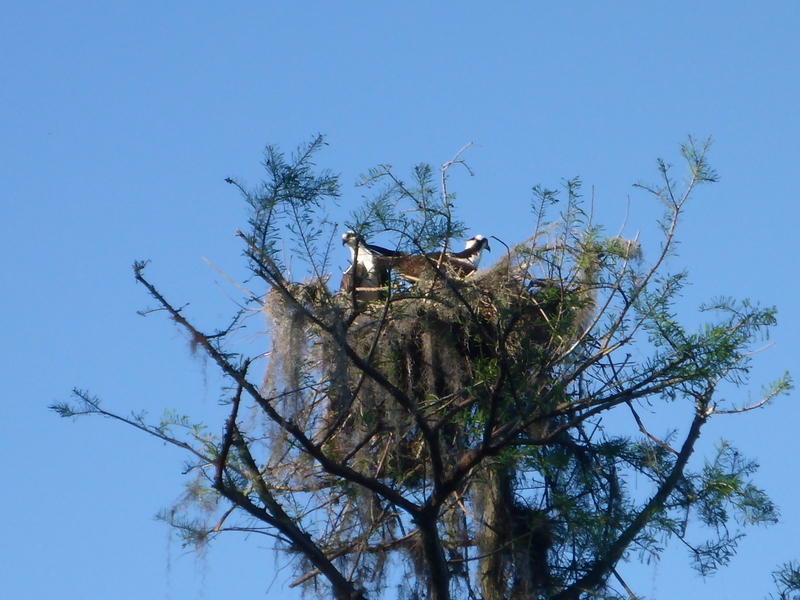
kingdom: Animalia
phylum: Chordata
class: Aves
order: Accipitriformes
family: Pandionidae
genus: Pandion
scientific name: Pandion haliaetus
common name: Osprey
